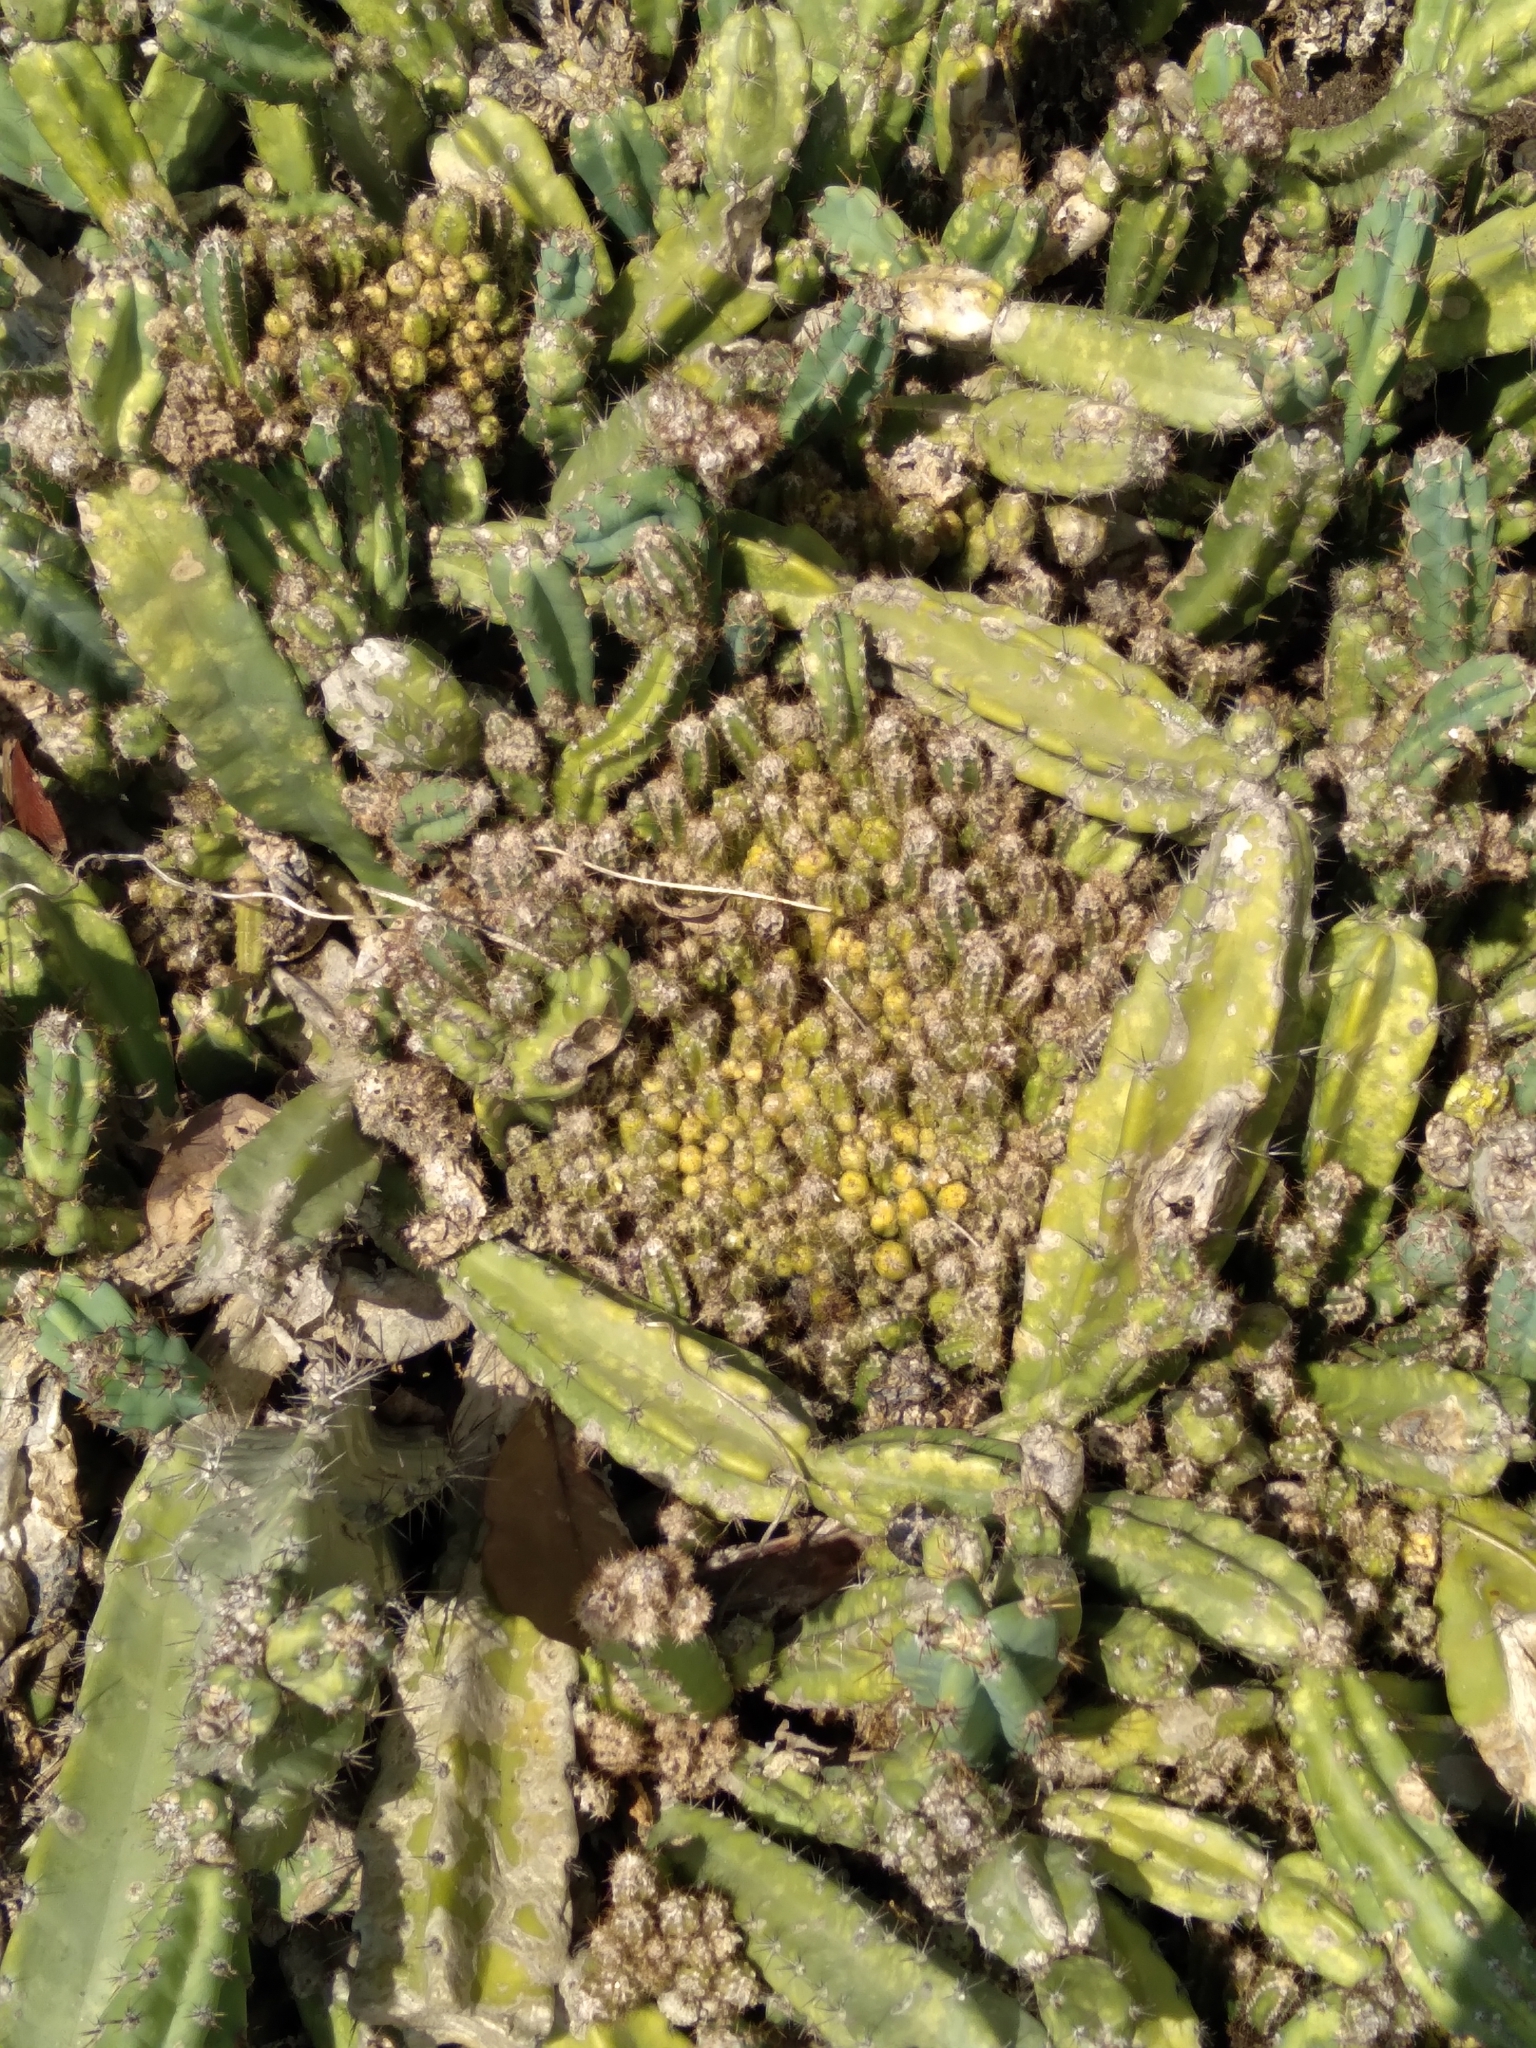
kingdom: Plantae
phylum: Tracheophyta
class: Magnoliopsida
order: Caryophyllales
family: Cactaceae
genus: Cereus
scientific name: Cereus fernambucensis
